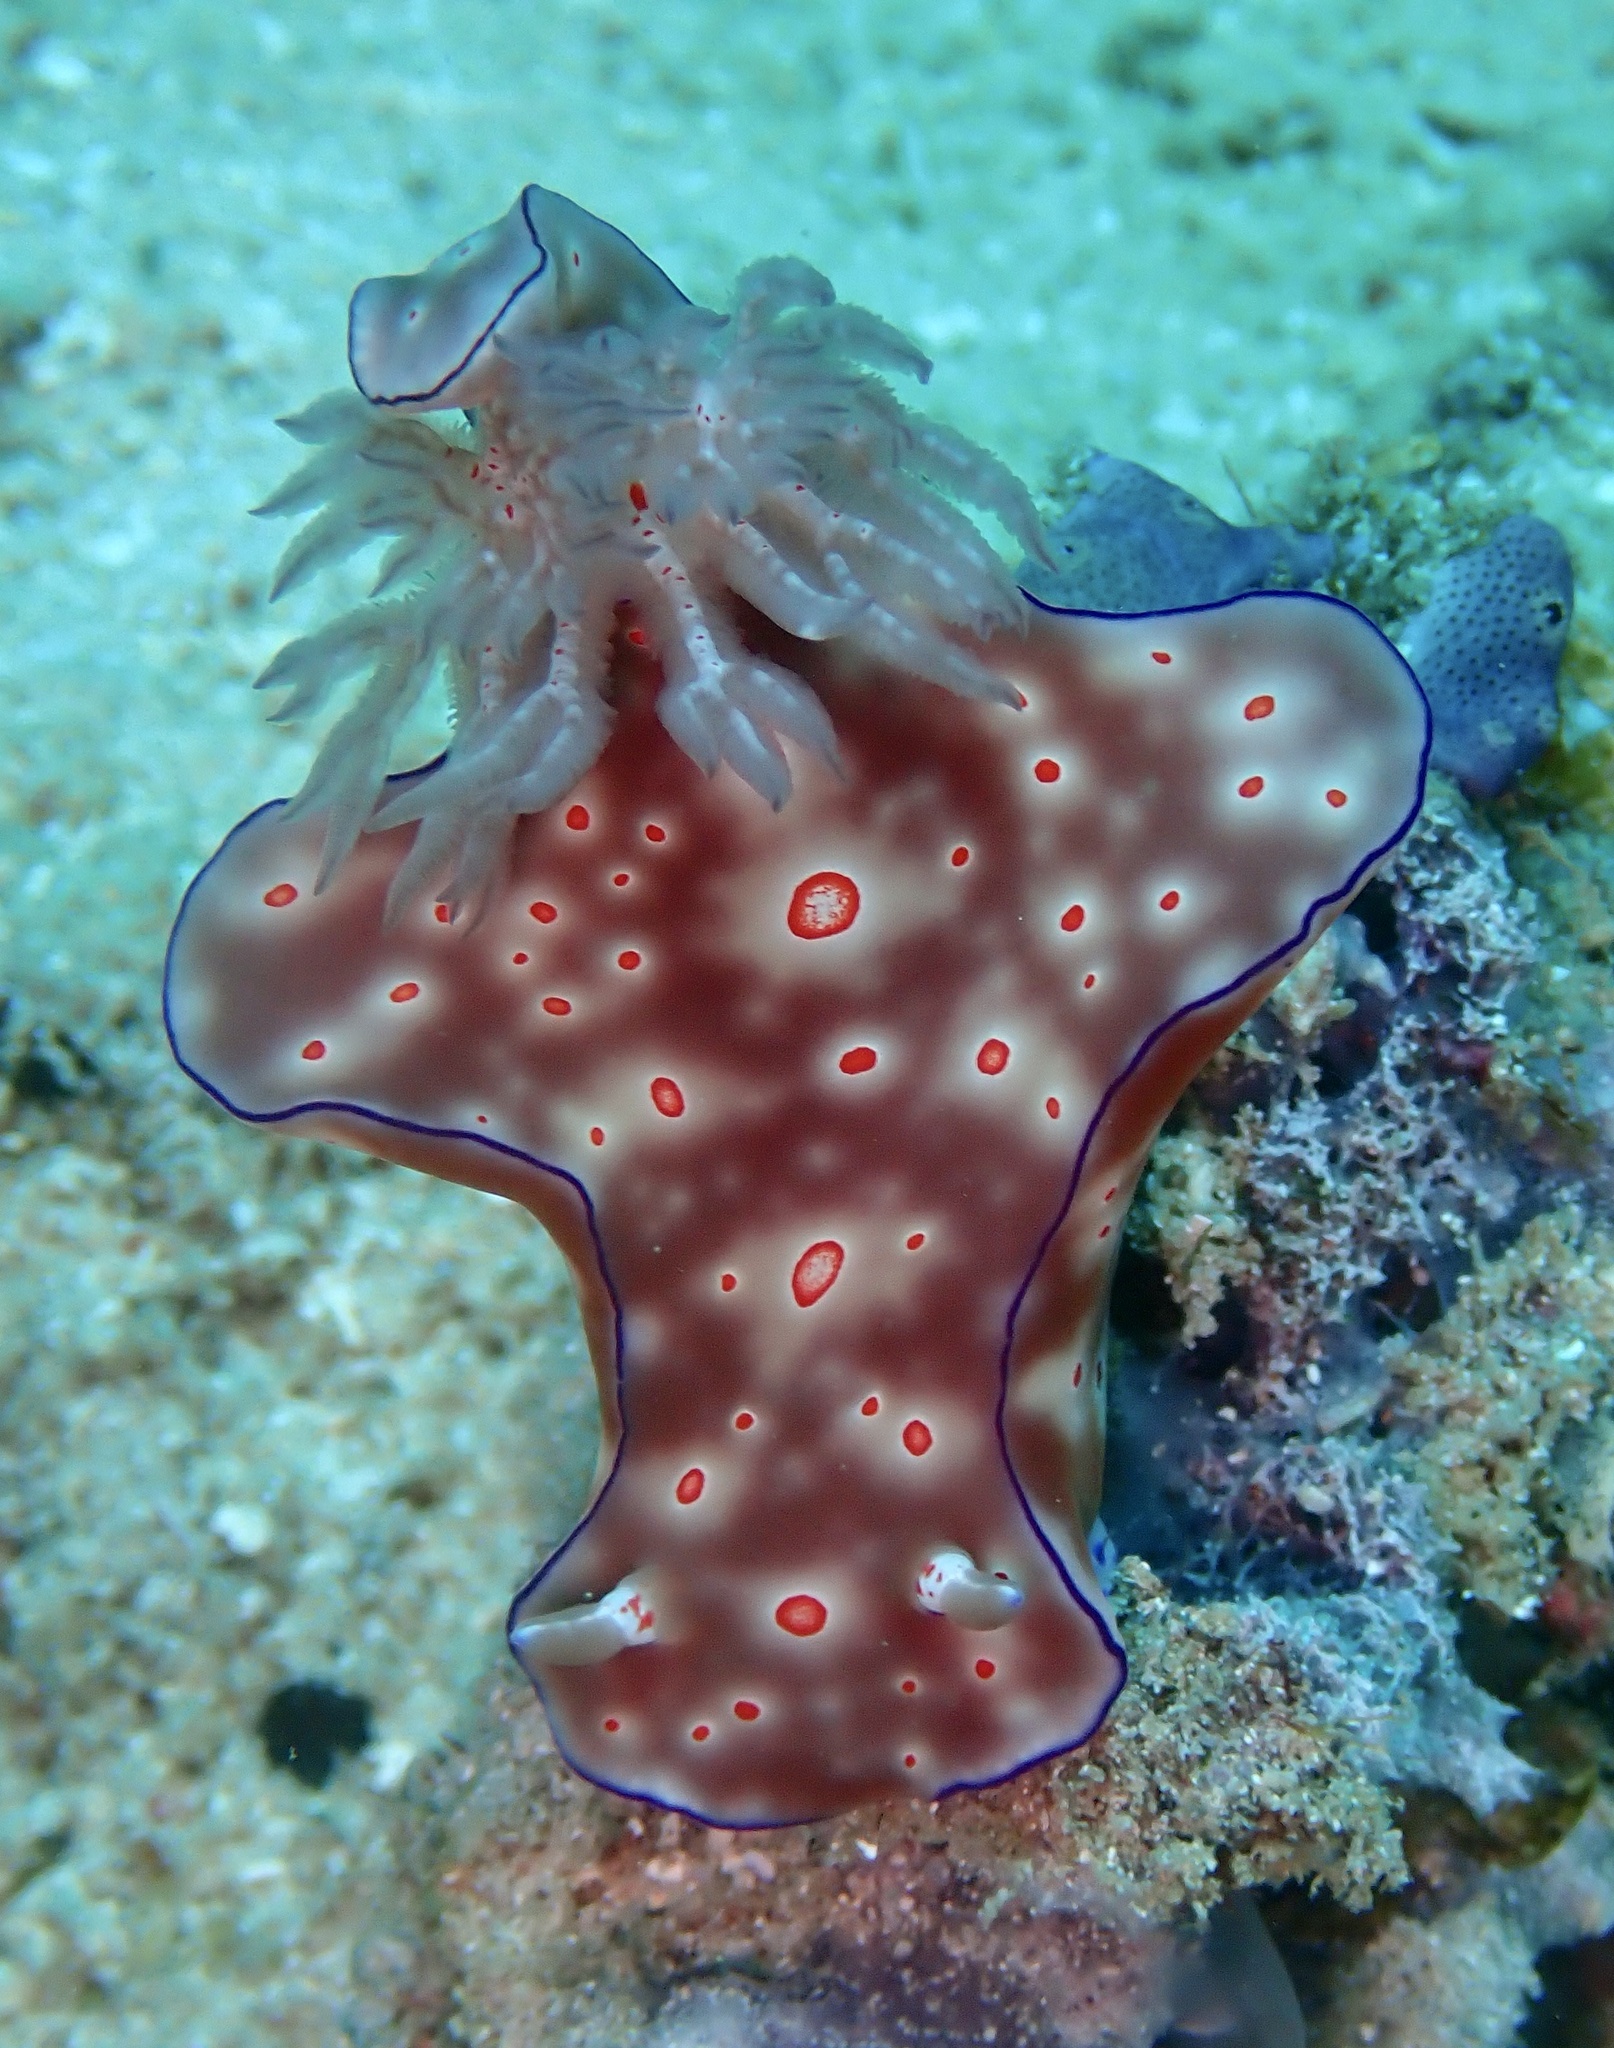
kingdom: Animalia
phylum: Mollusca
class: Gastropoda
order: Nudibranchia
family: Chromodorididae
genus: Ceratosoma
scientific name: Ceratosoma trilobatum
